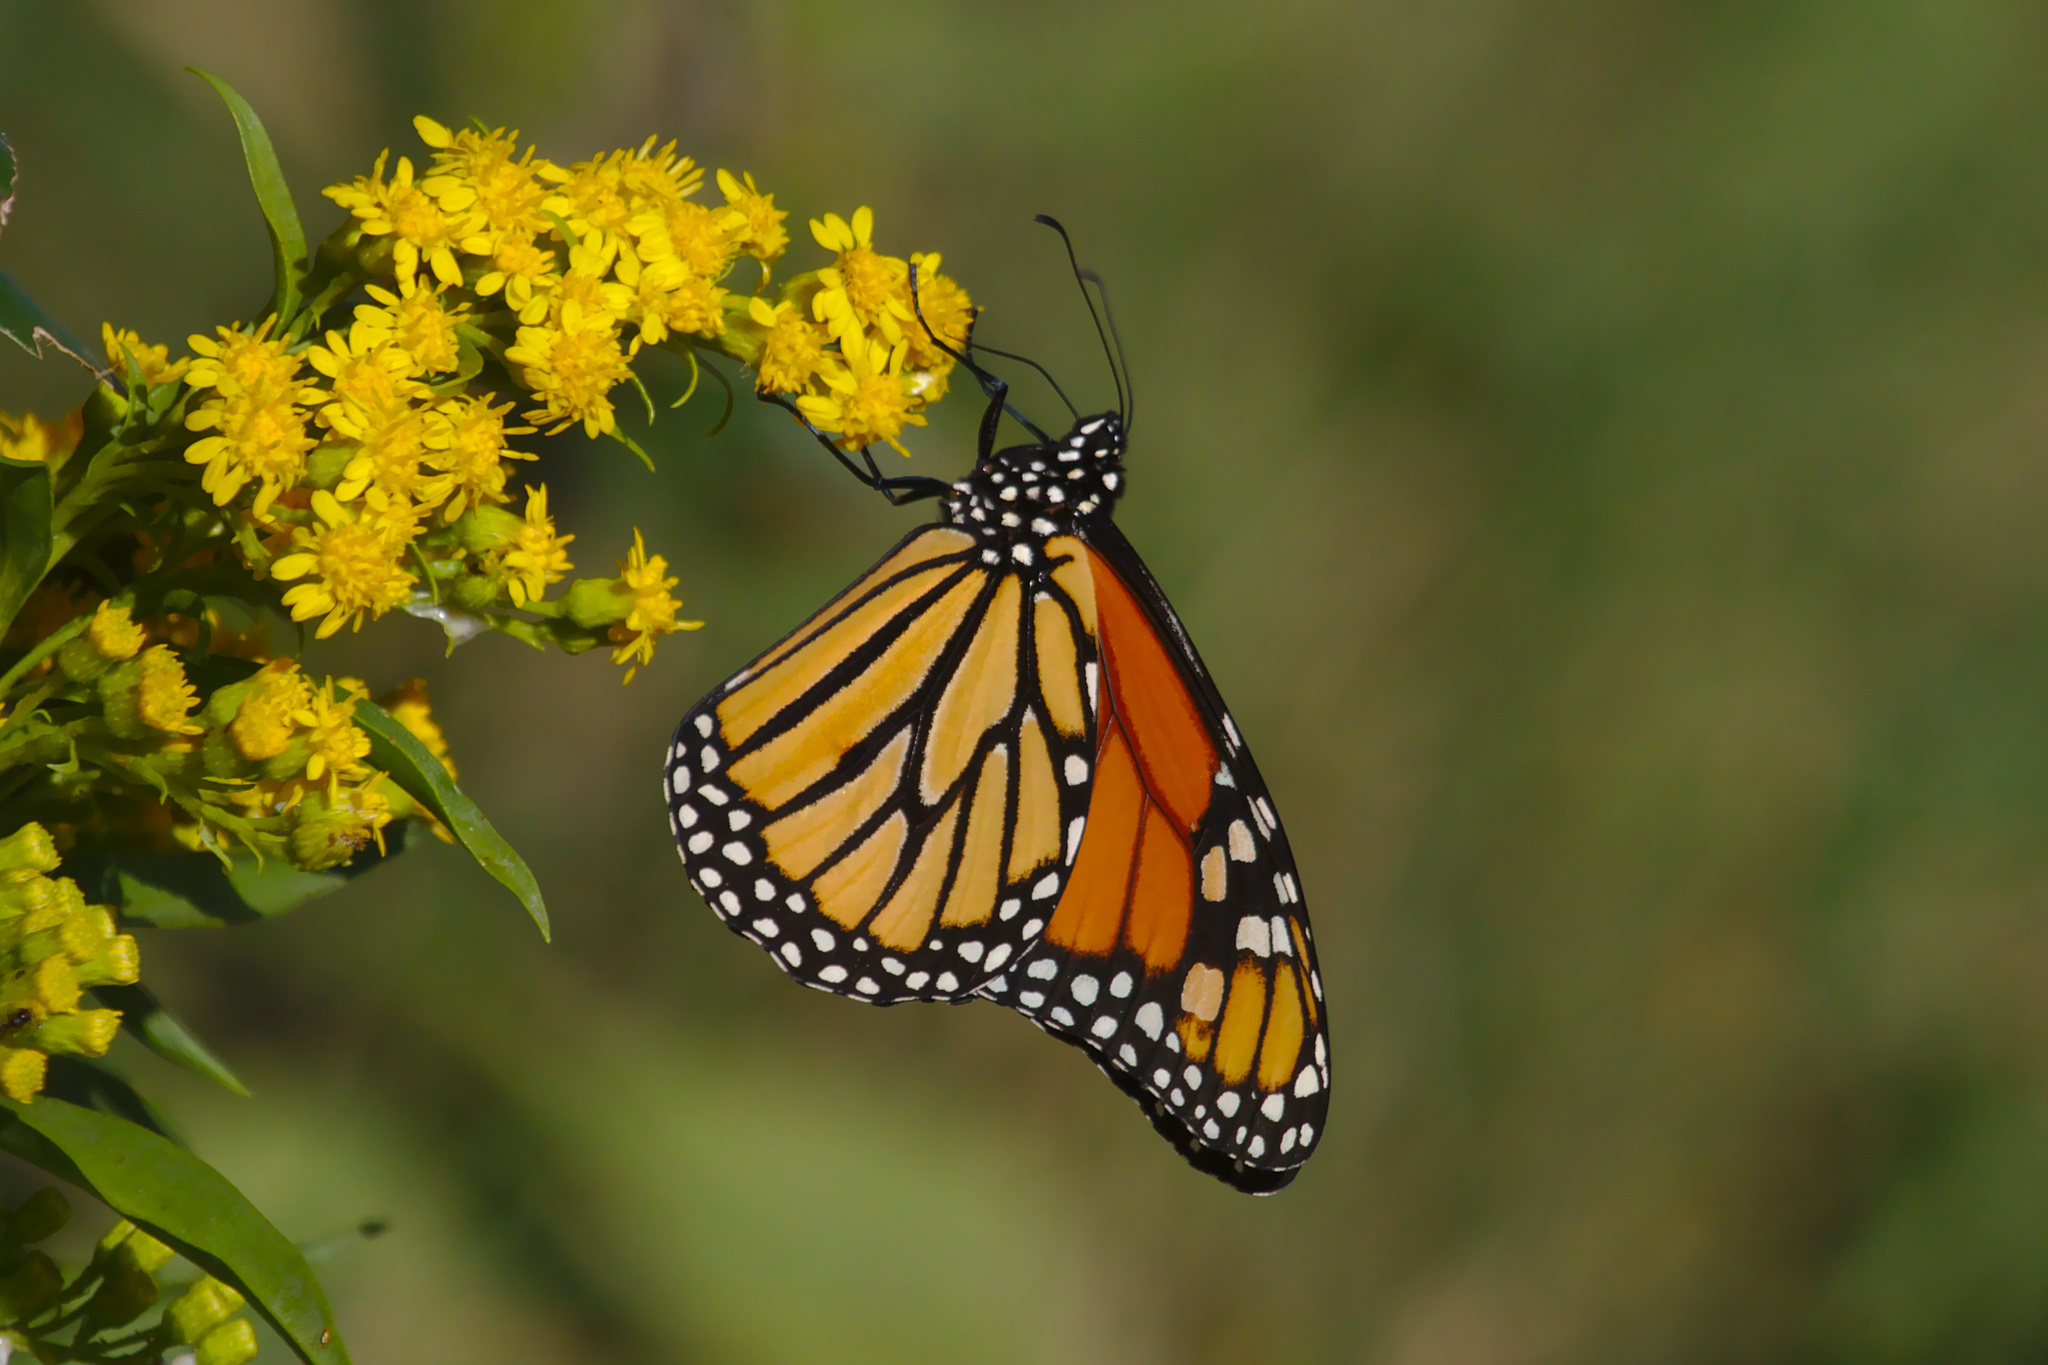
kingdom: Animalia
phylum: Arthropoda
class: Insecta
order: Lepidoptera
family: Nymphalidae
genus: Danaus
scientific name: Danaus plexippus
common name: Monarch
